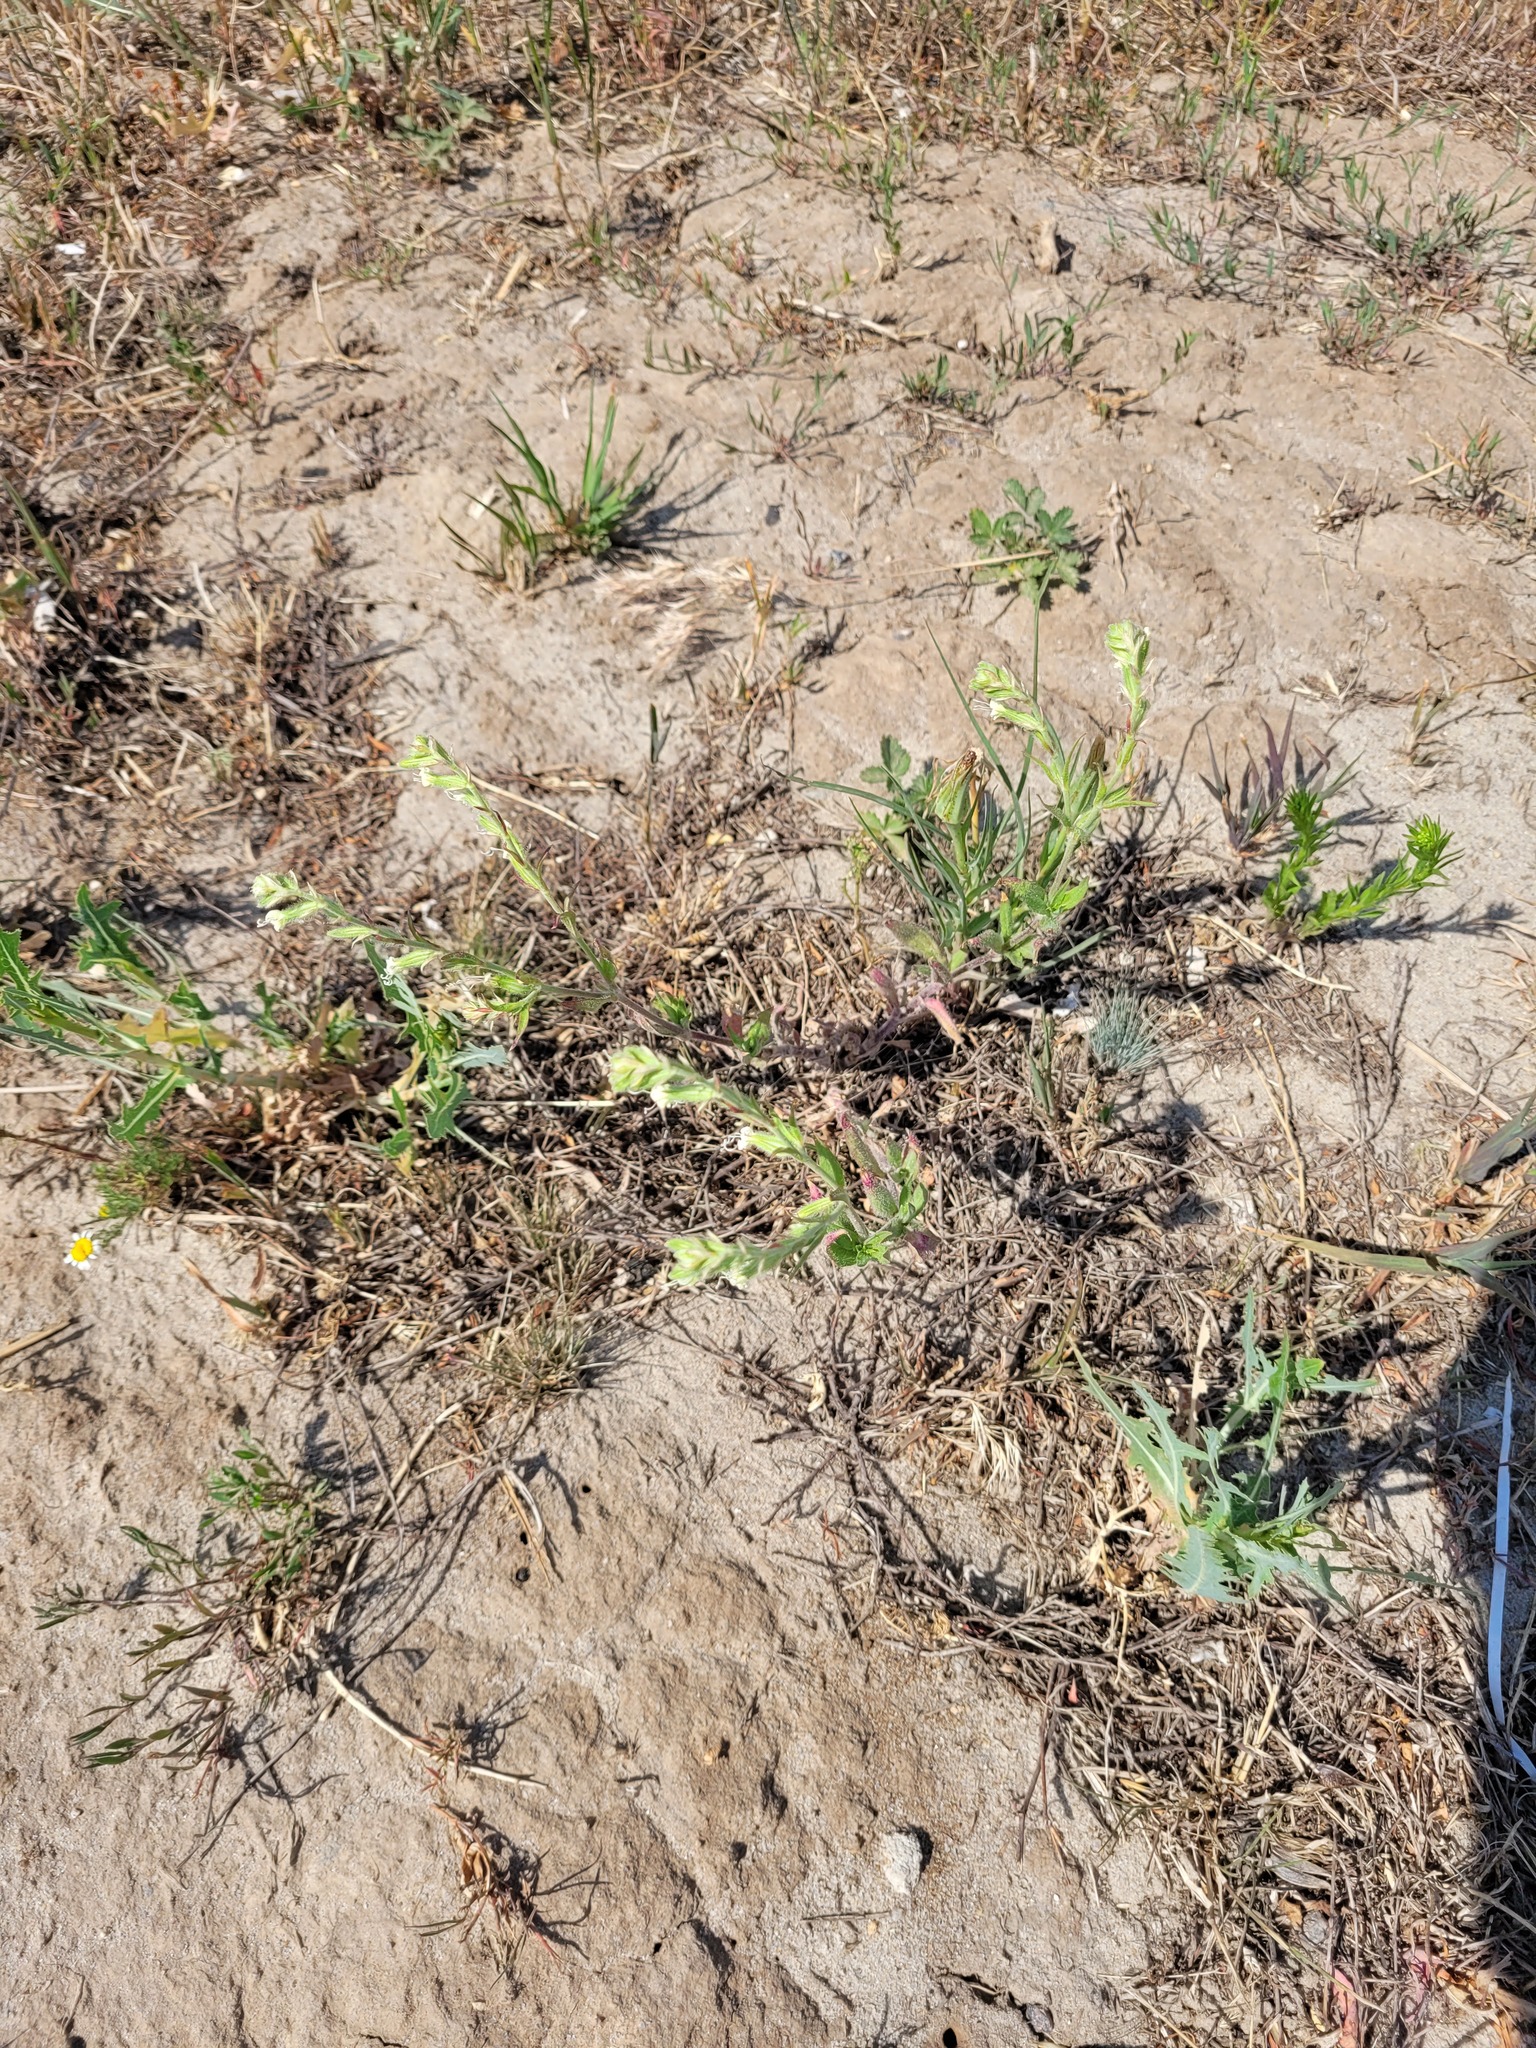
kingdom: Plantae
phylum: Tracheophyta
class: Magnoliopsida
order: Caryophyllales
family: Caryophyllaceae
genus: Silene
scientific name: Silene dichotoma
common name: Forked catchfly
